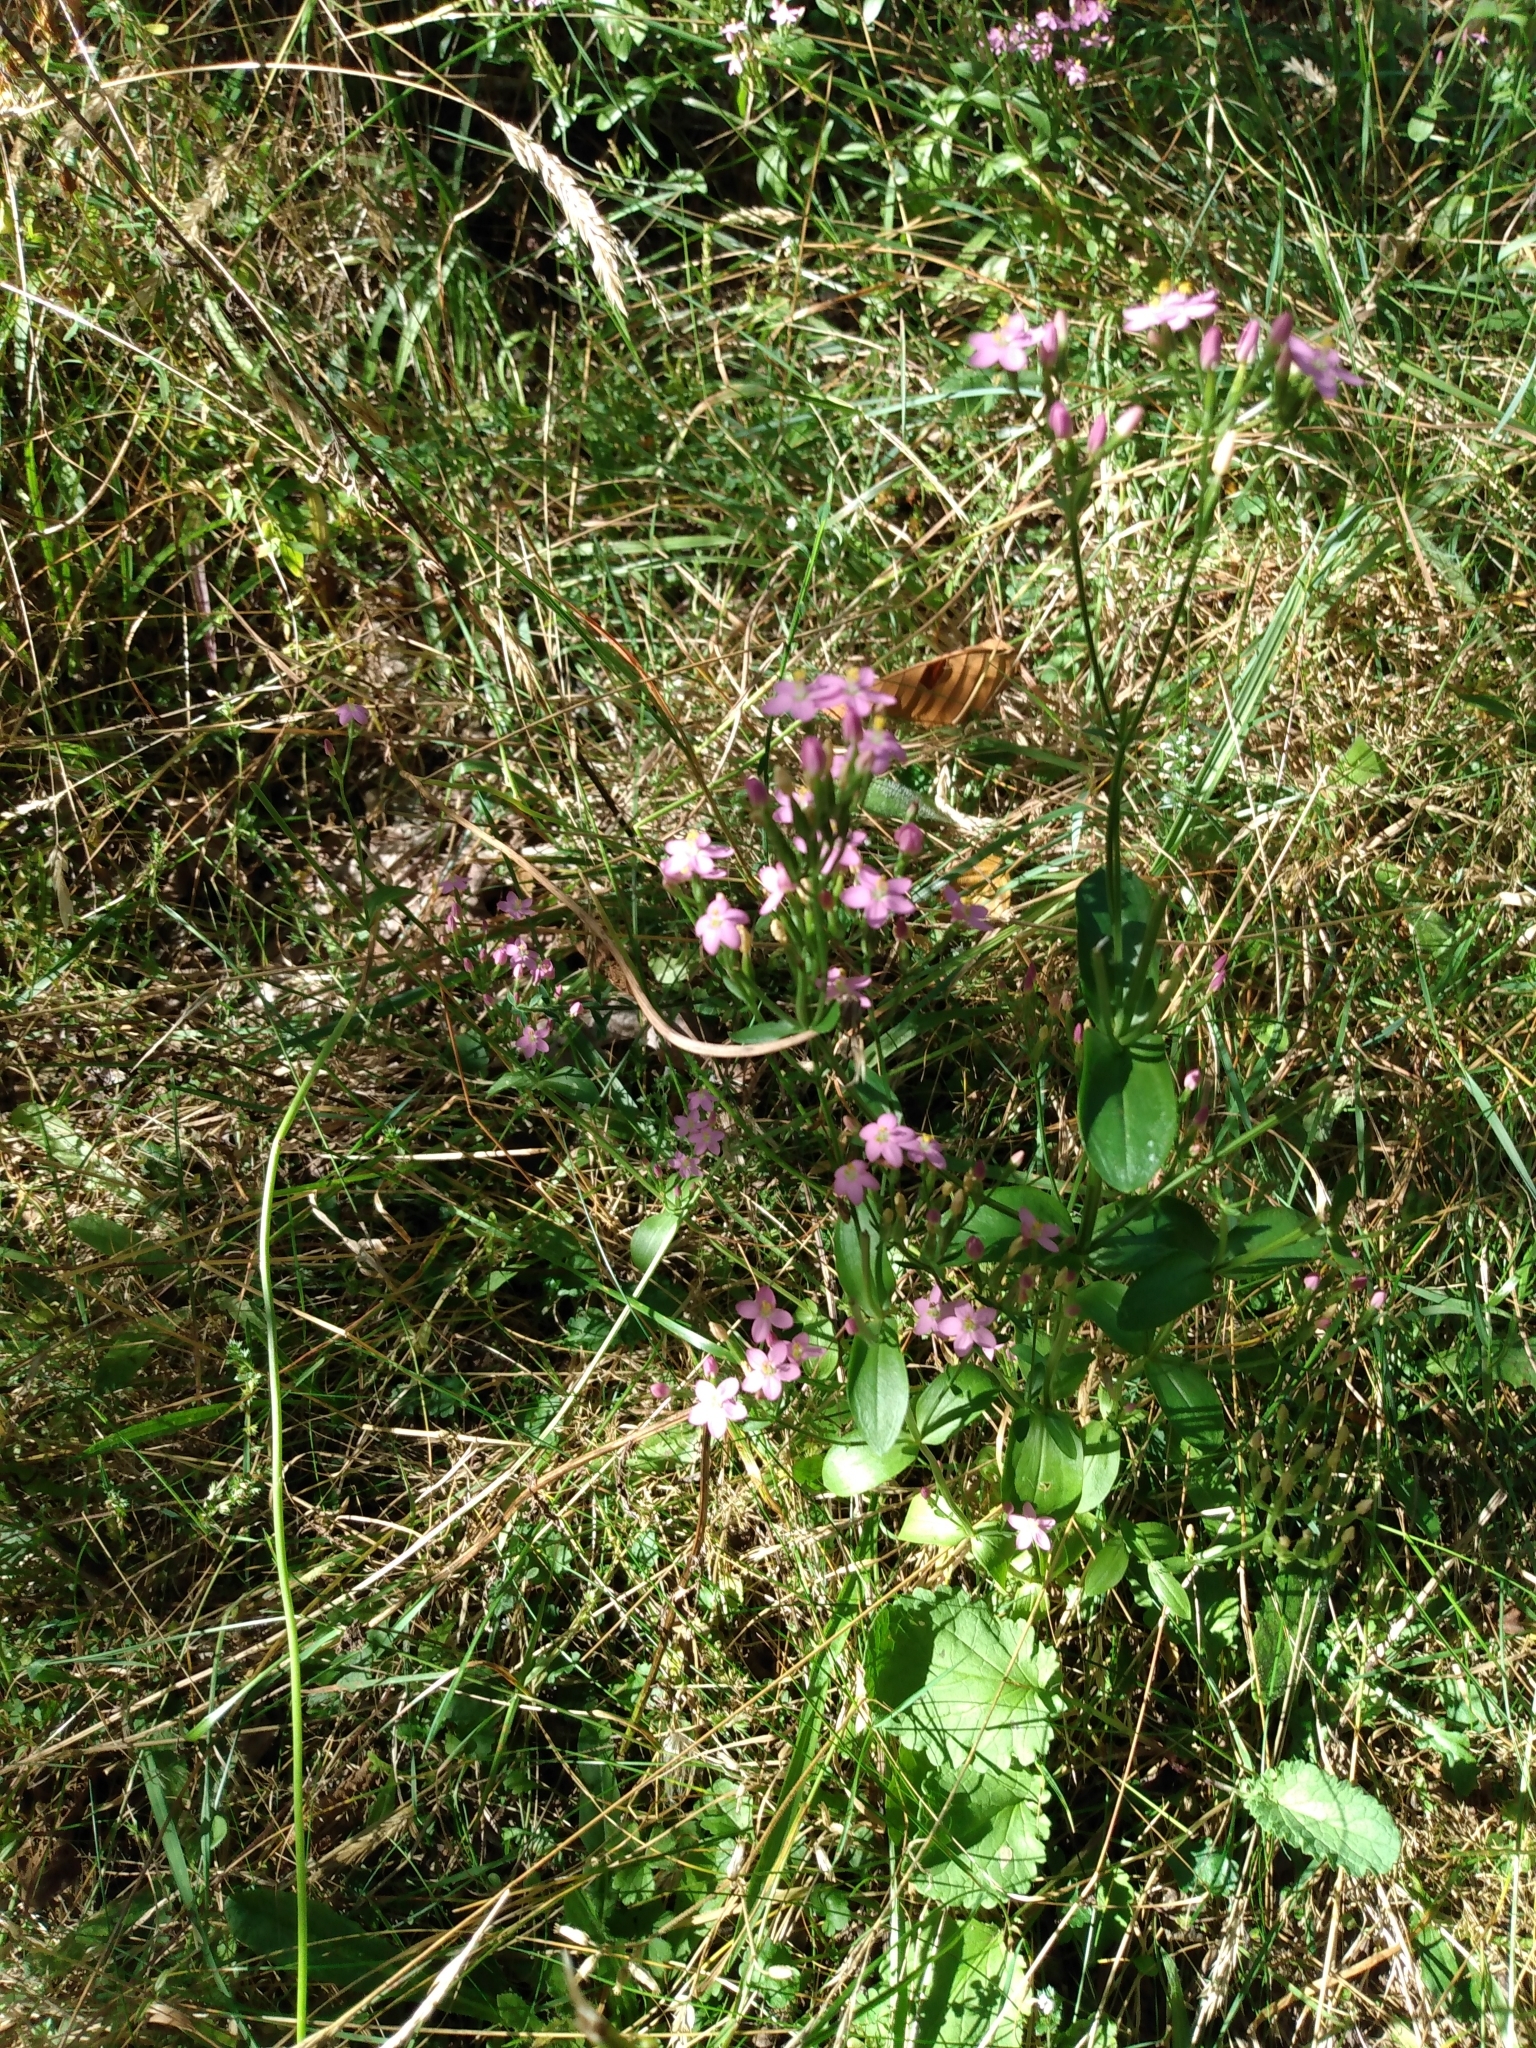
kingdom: Plantae
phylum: Tracheophyta
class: Magnoliopsida
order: Gentianales
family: Gentianaceae
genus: Centaurium
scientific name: Centaurium erythraea
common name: Common centaury
